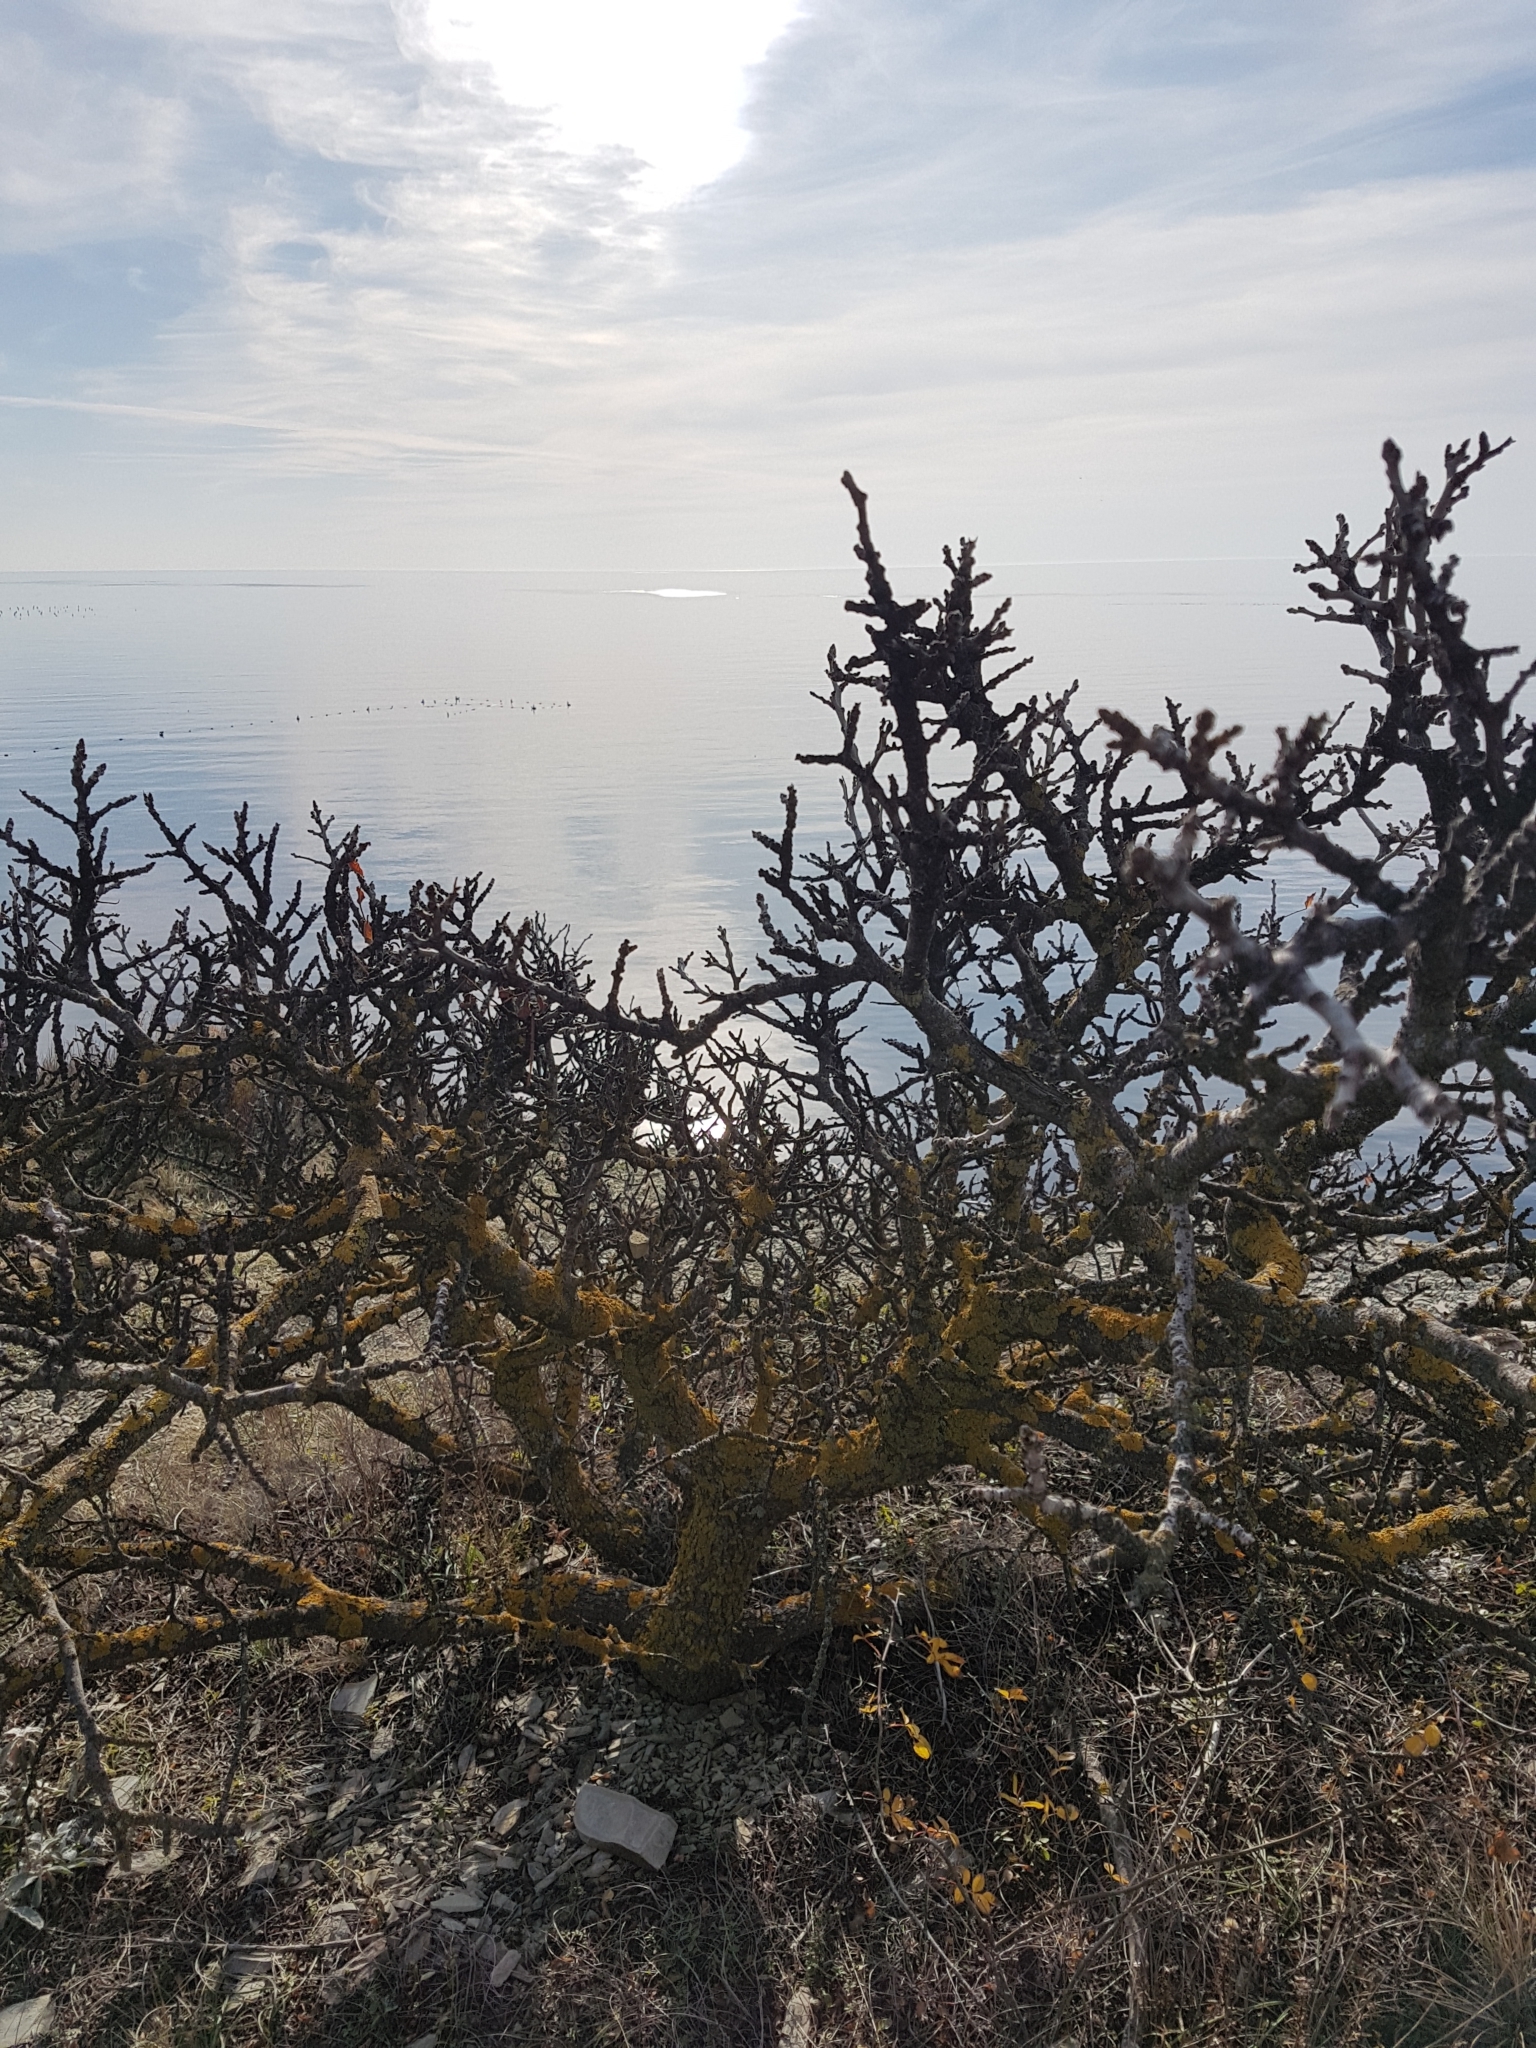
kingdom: Plantae
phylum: Tracheophyta
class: Magnoliopsida
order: Sapindales
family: Anacardiaceae
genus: Pistacia
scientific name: Pistacia atlantica
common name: Mt. atlas mastic tree
